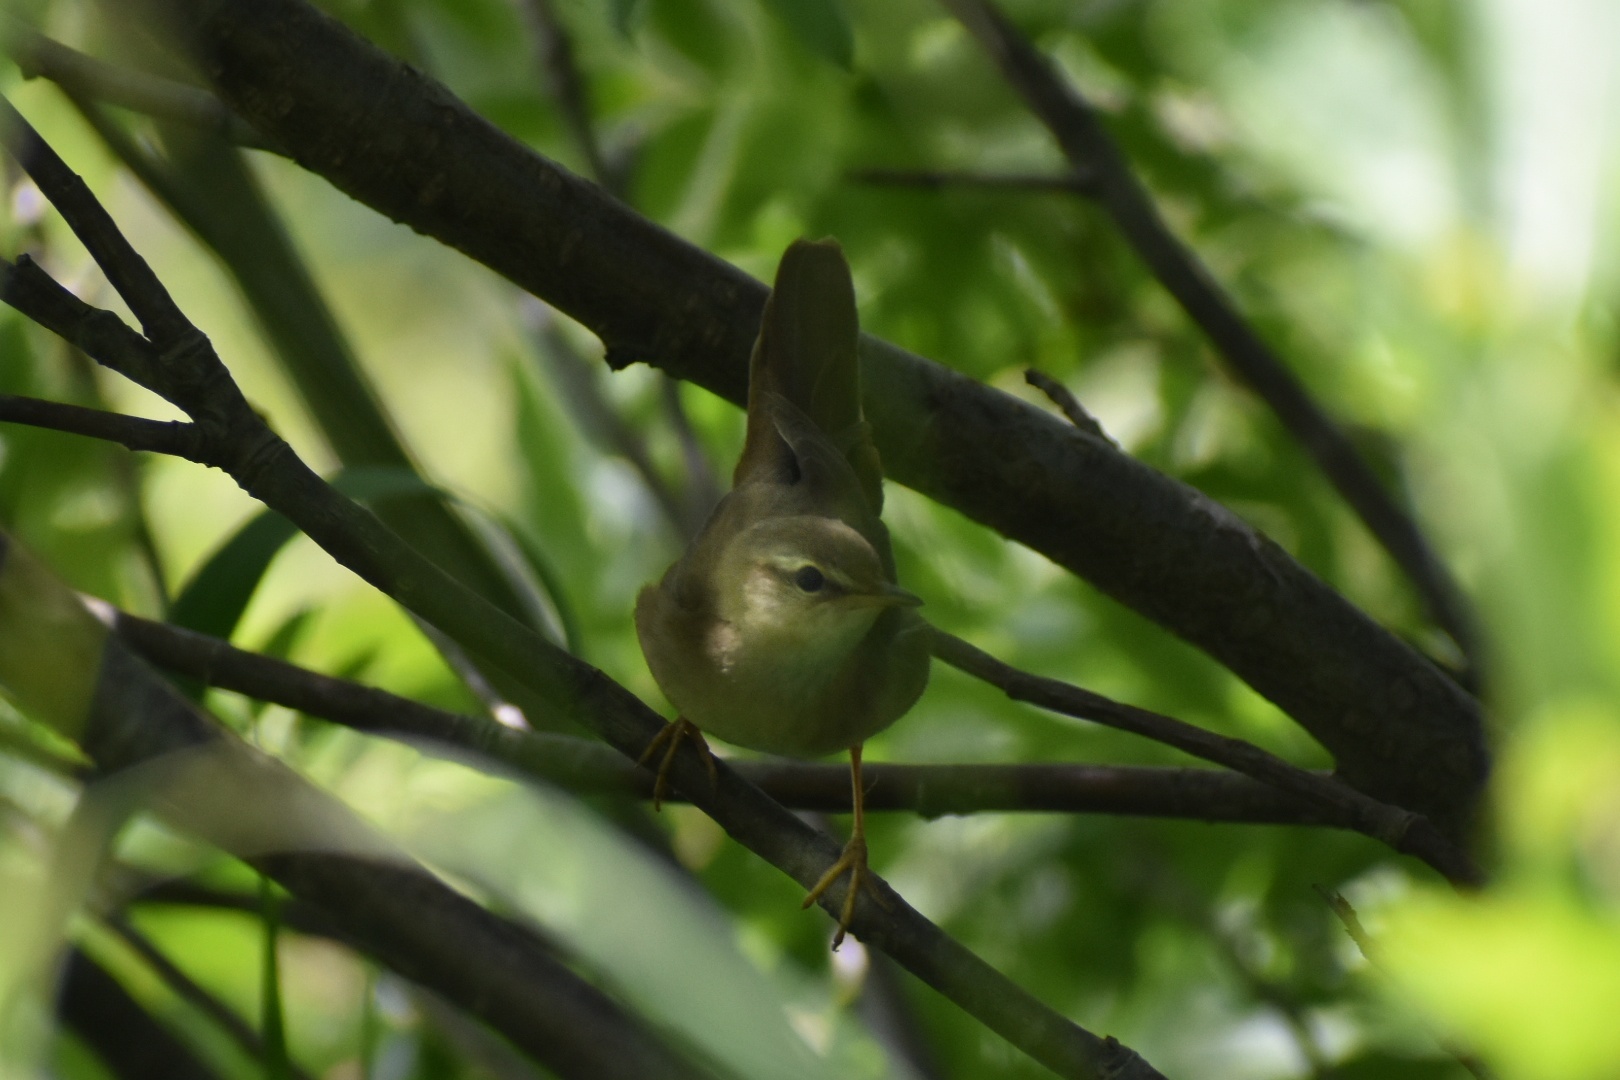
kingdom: Animalia
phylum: Chordata
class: Aves
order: Passeriformes
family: Locustellidae
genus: Locustella
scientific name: Locustella ochotensis
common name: Middendorff's grasshopper-warbler
